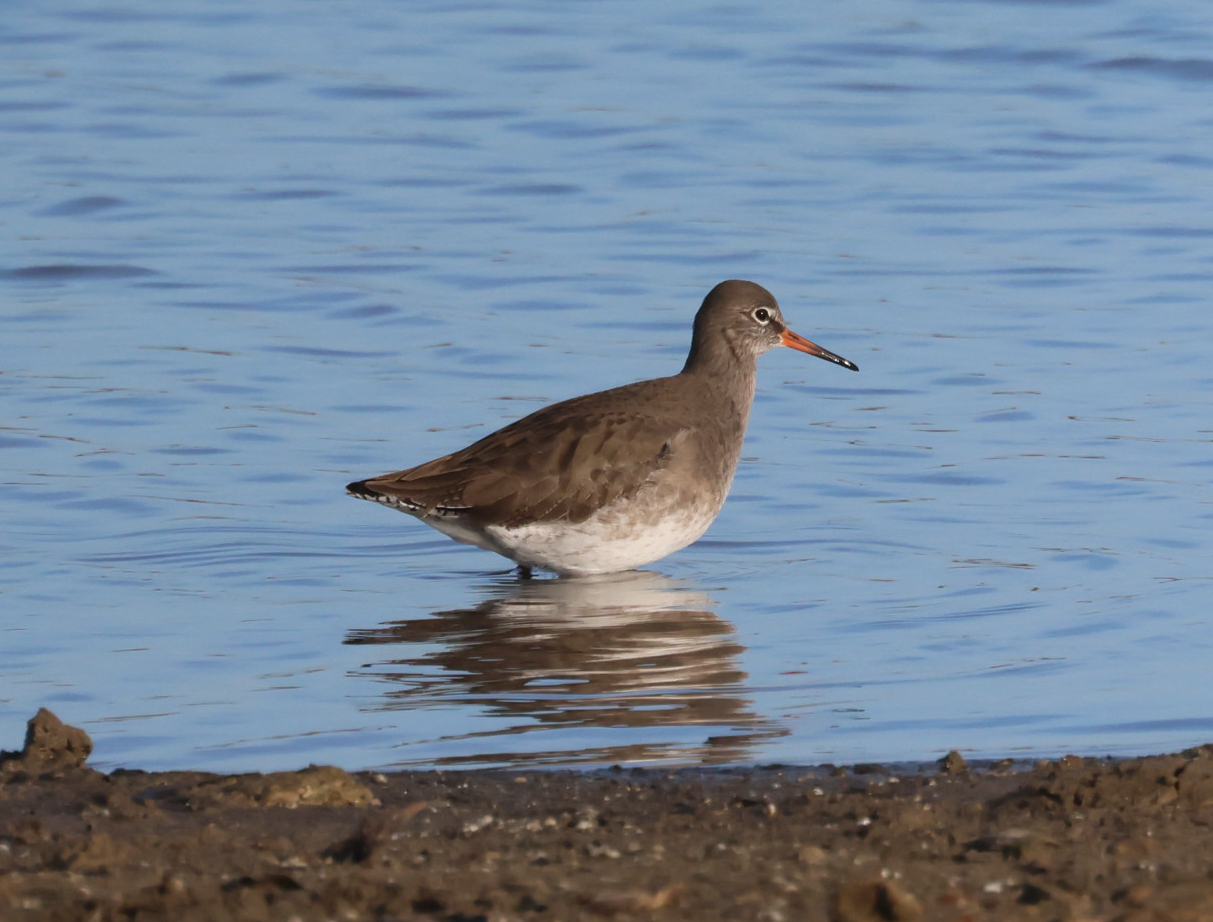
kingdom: Animalia
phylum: Chordata
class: Aves
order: Charadriiformes
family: Scolopacidae
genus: Tringa
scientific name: Tringa totanus
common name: Common redshank
